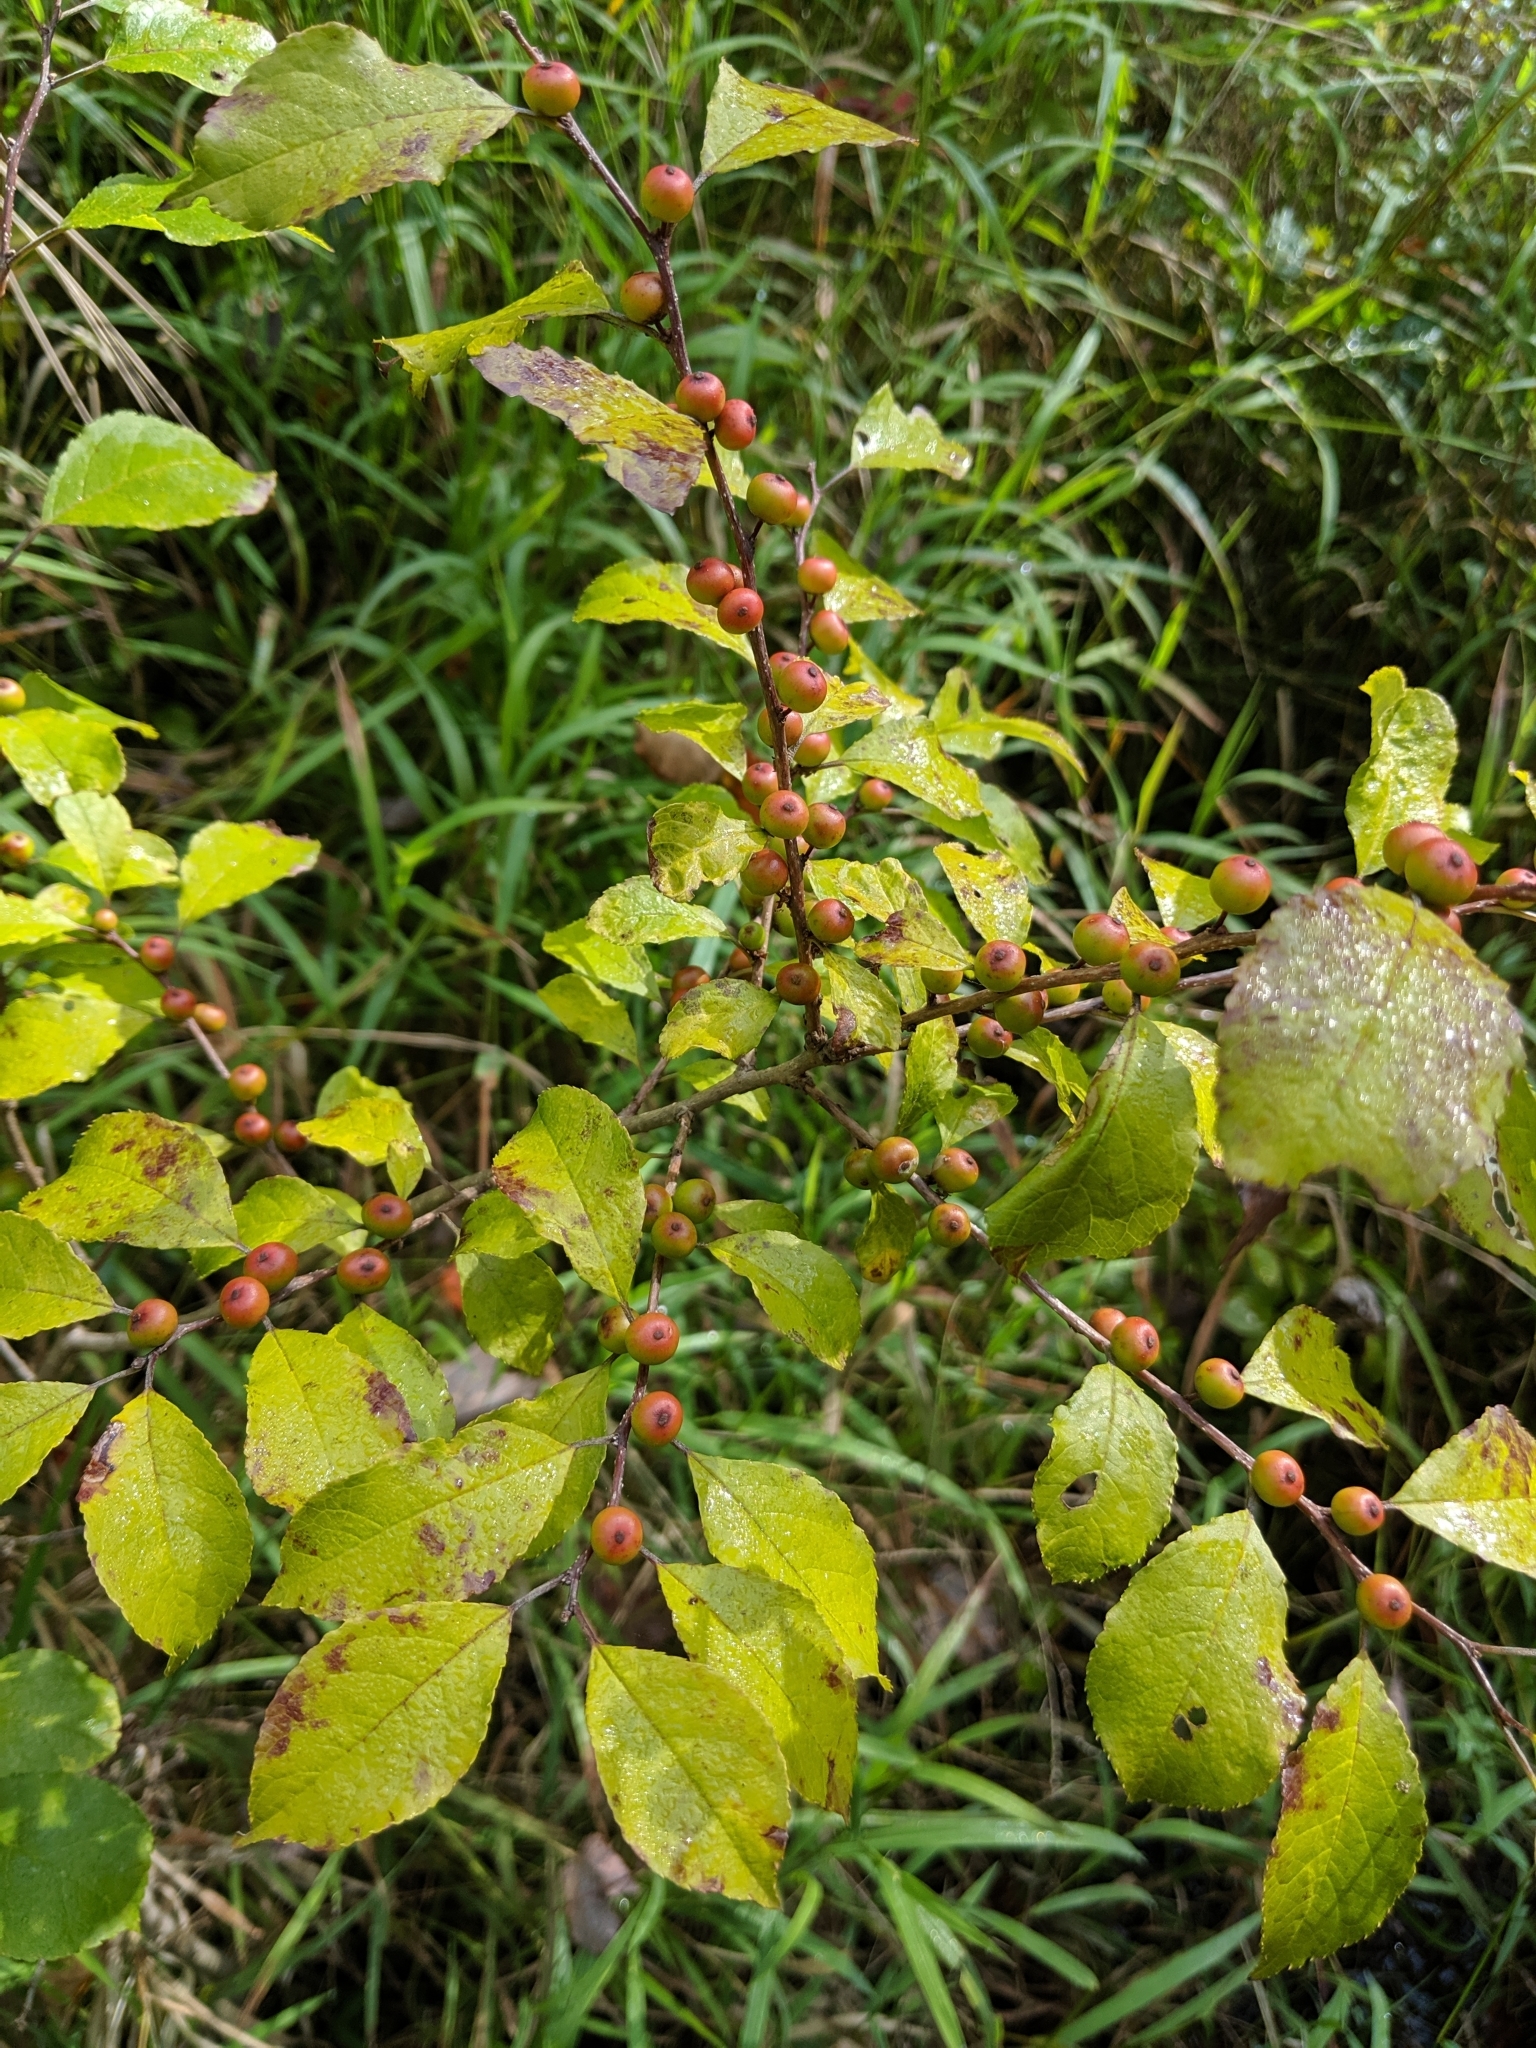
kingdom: Plantae
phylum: Tracheophyta
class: Magnoliopsida
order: Aquifoliales
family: Aquifoliaceae
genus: Ilex
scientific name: Ilex verticillata
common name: Virginia winterberry
